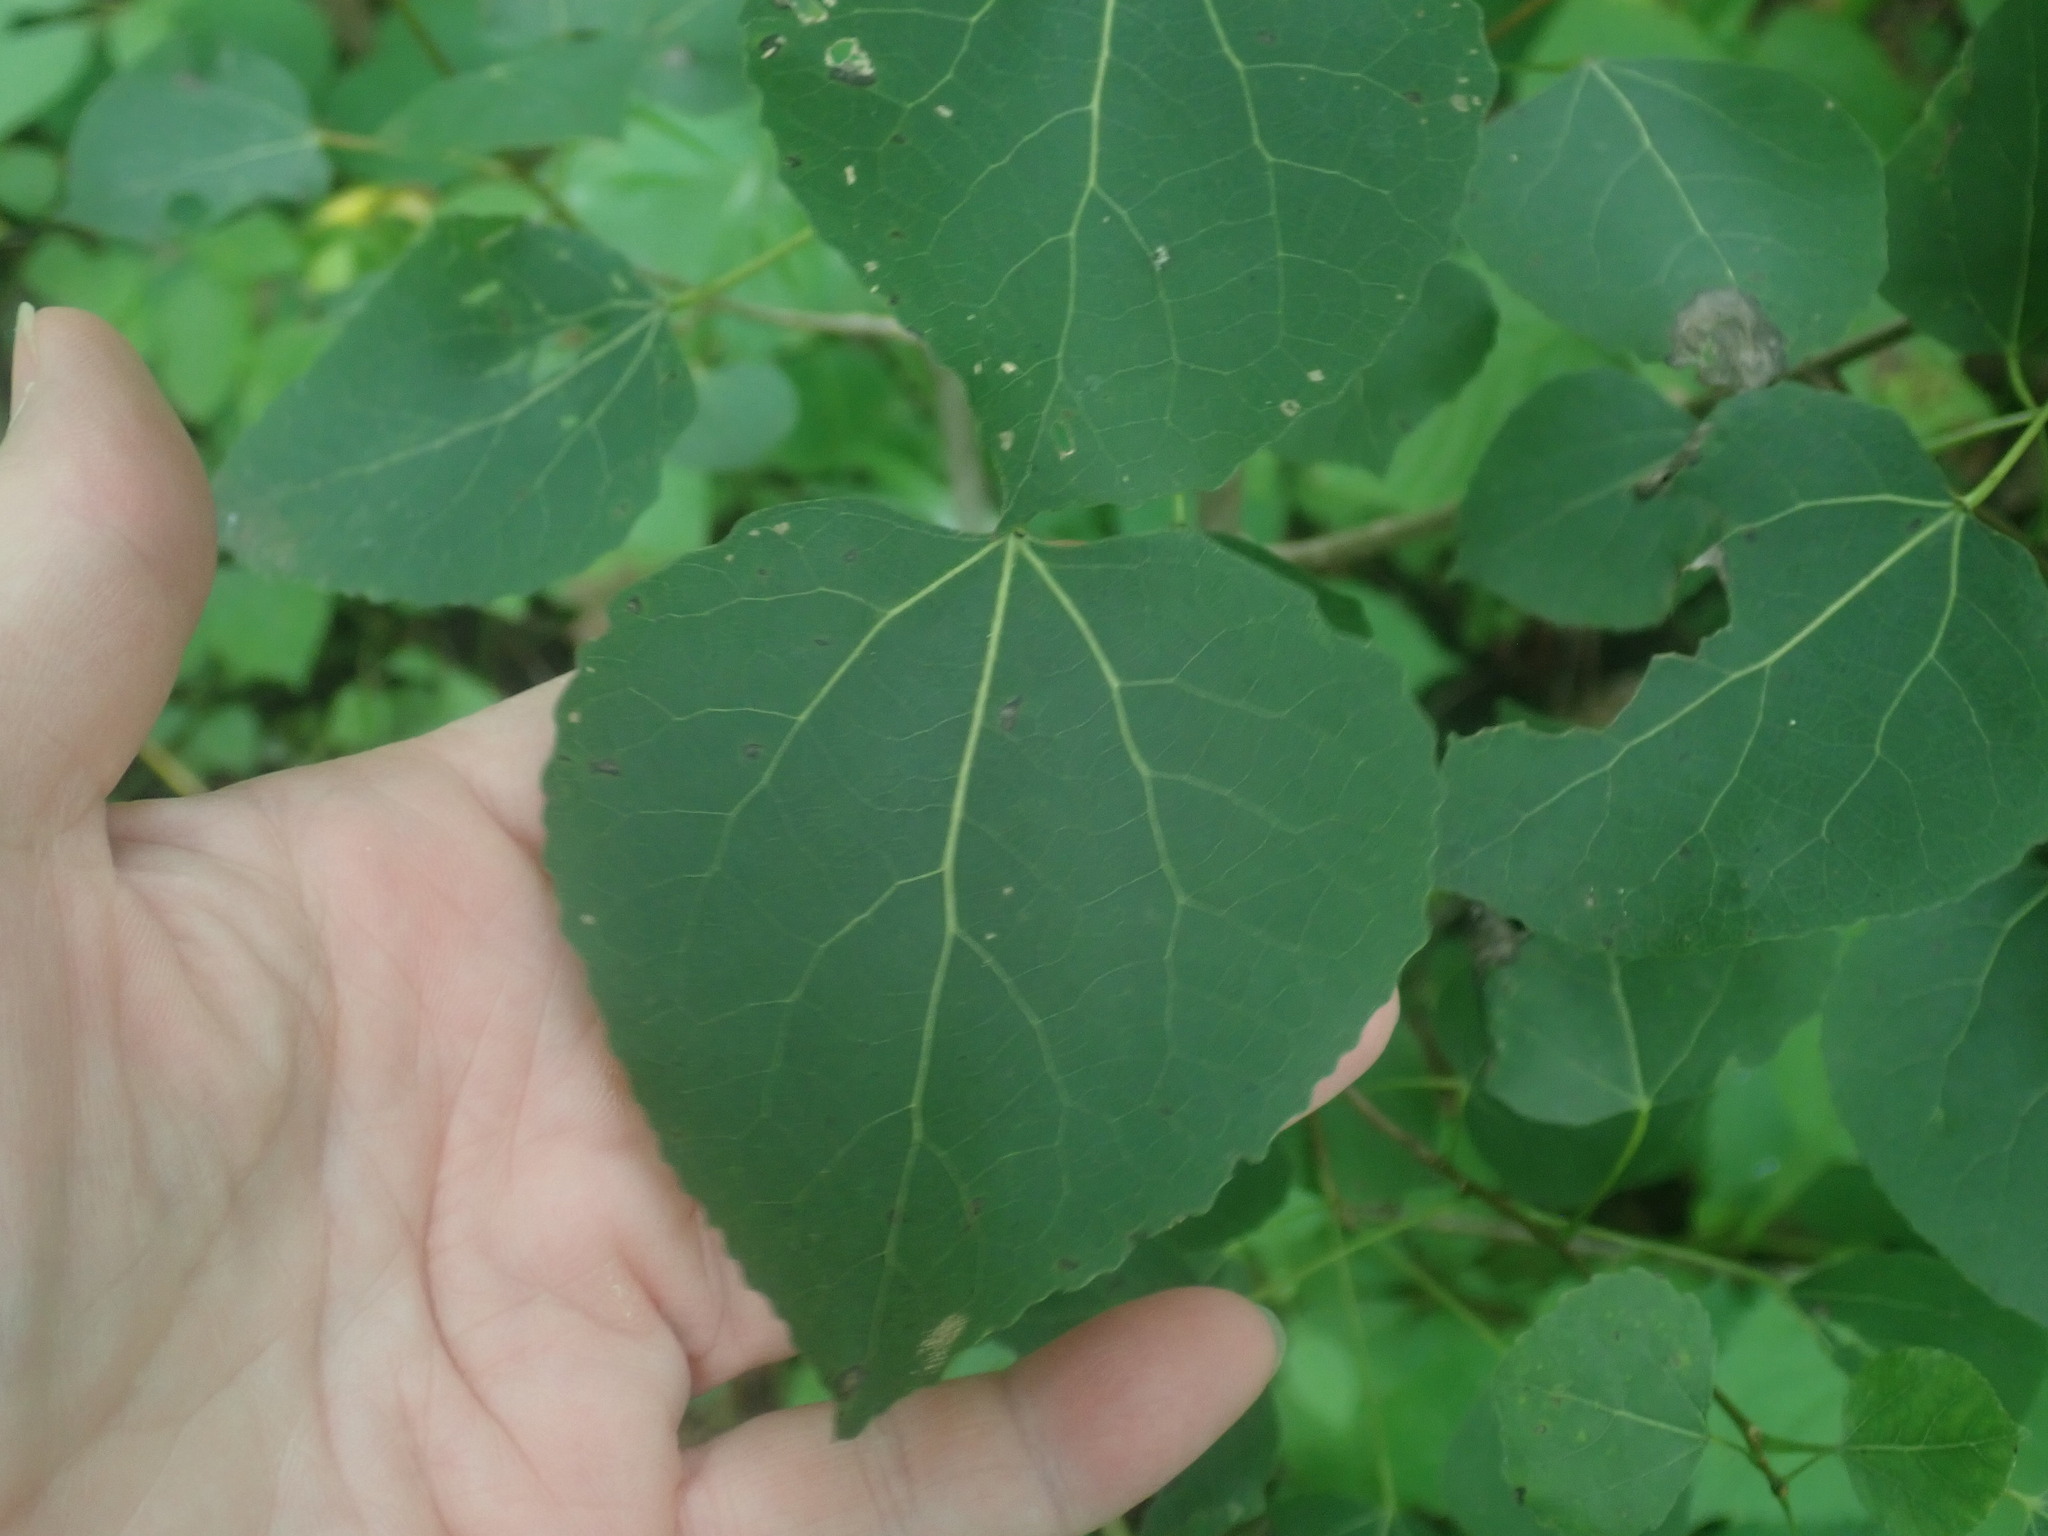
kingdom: Plantae
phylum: Tracheophyta
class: Magnoliopsida
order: Malpighiales
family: Salicaceae
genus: Populus
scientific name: Populus tremuloides
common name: Quaking aspen
